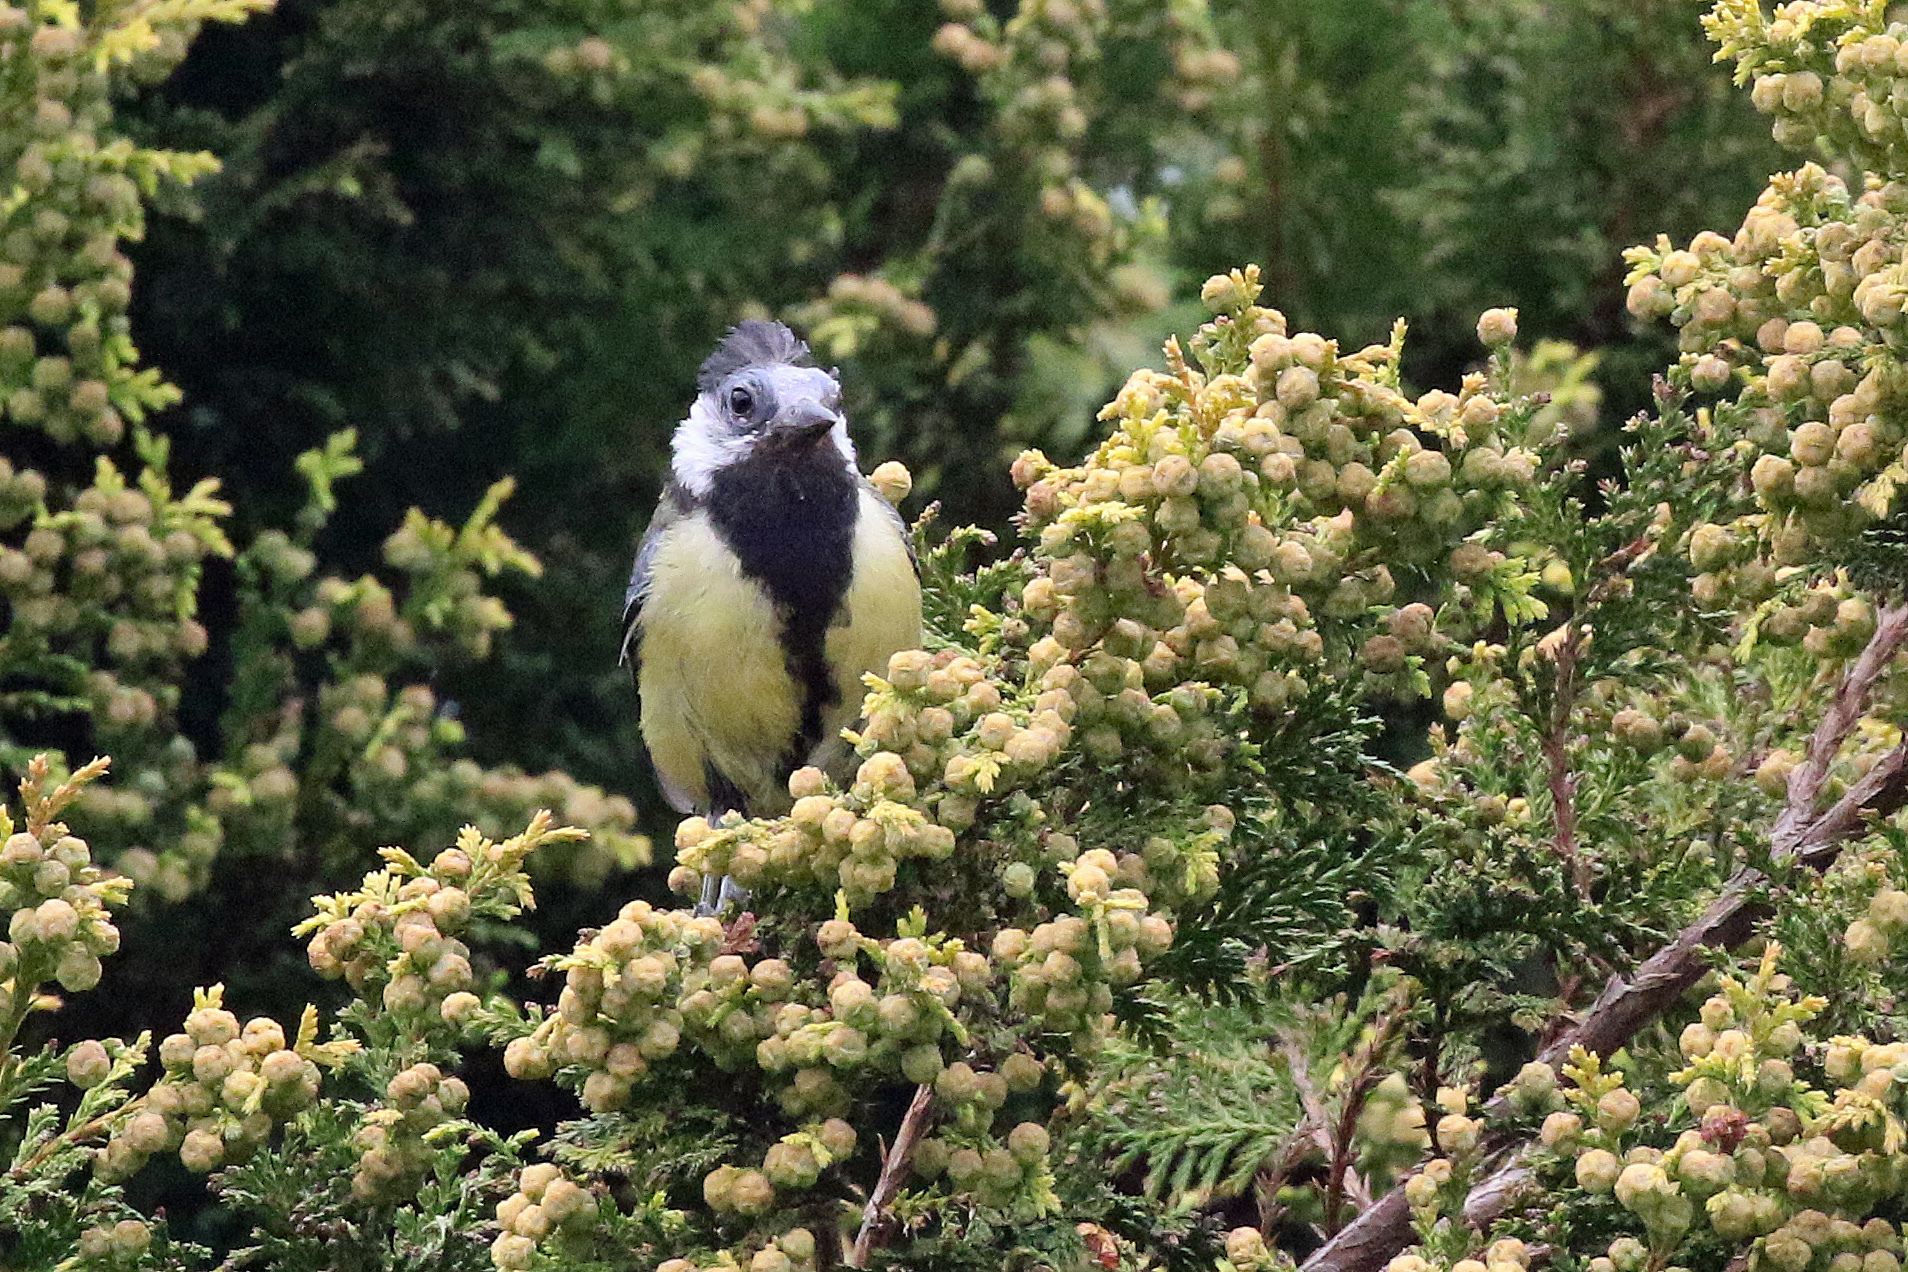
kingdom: Animalia
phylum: Chordata
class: Aves
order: Passeriformes
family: Paridae
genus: Parus
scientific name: Parus major
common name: Great tit
